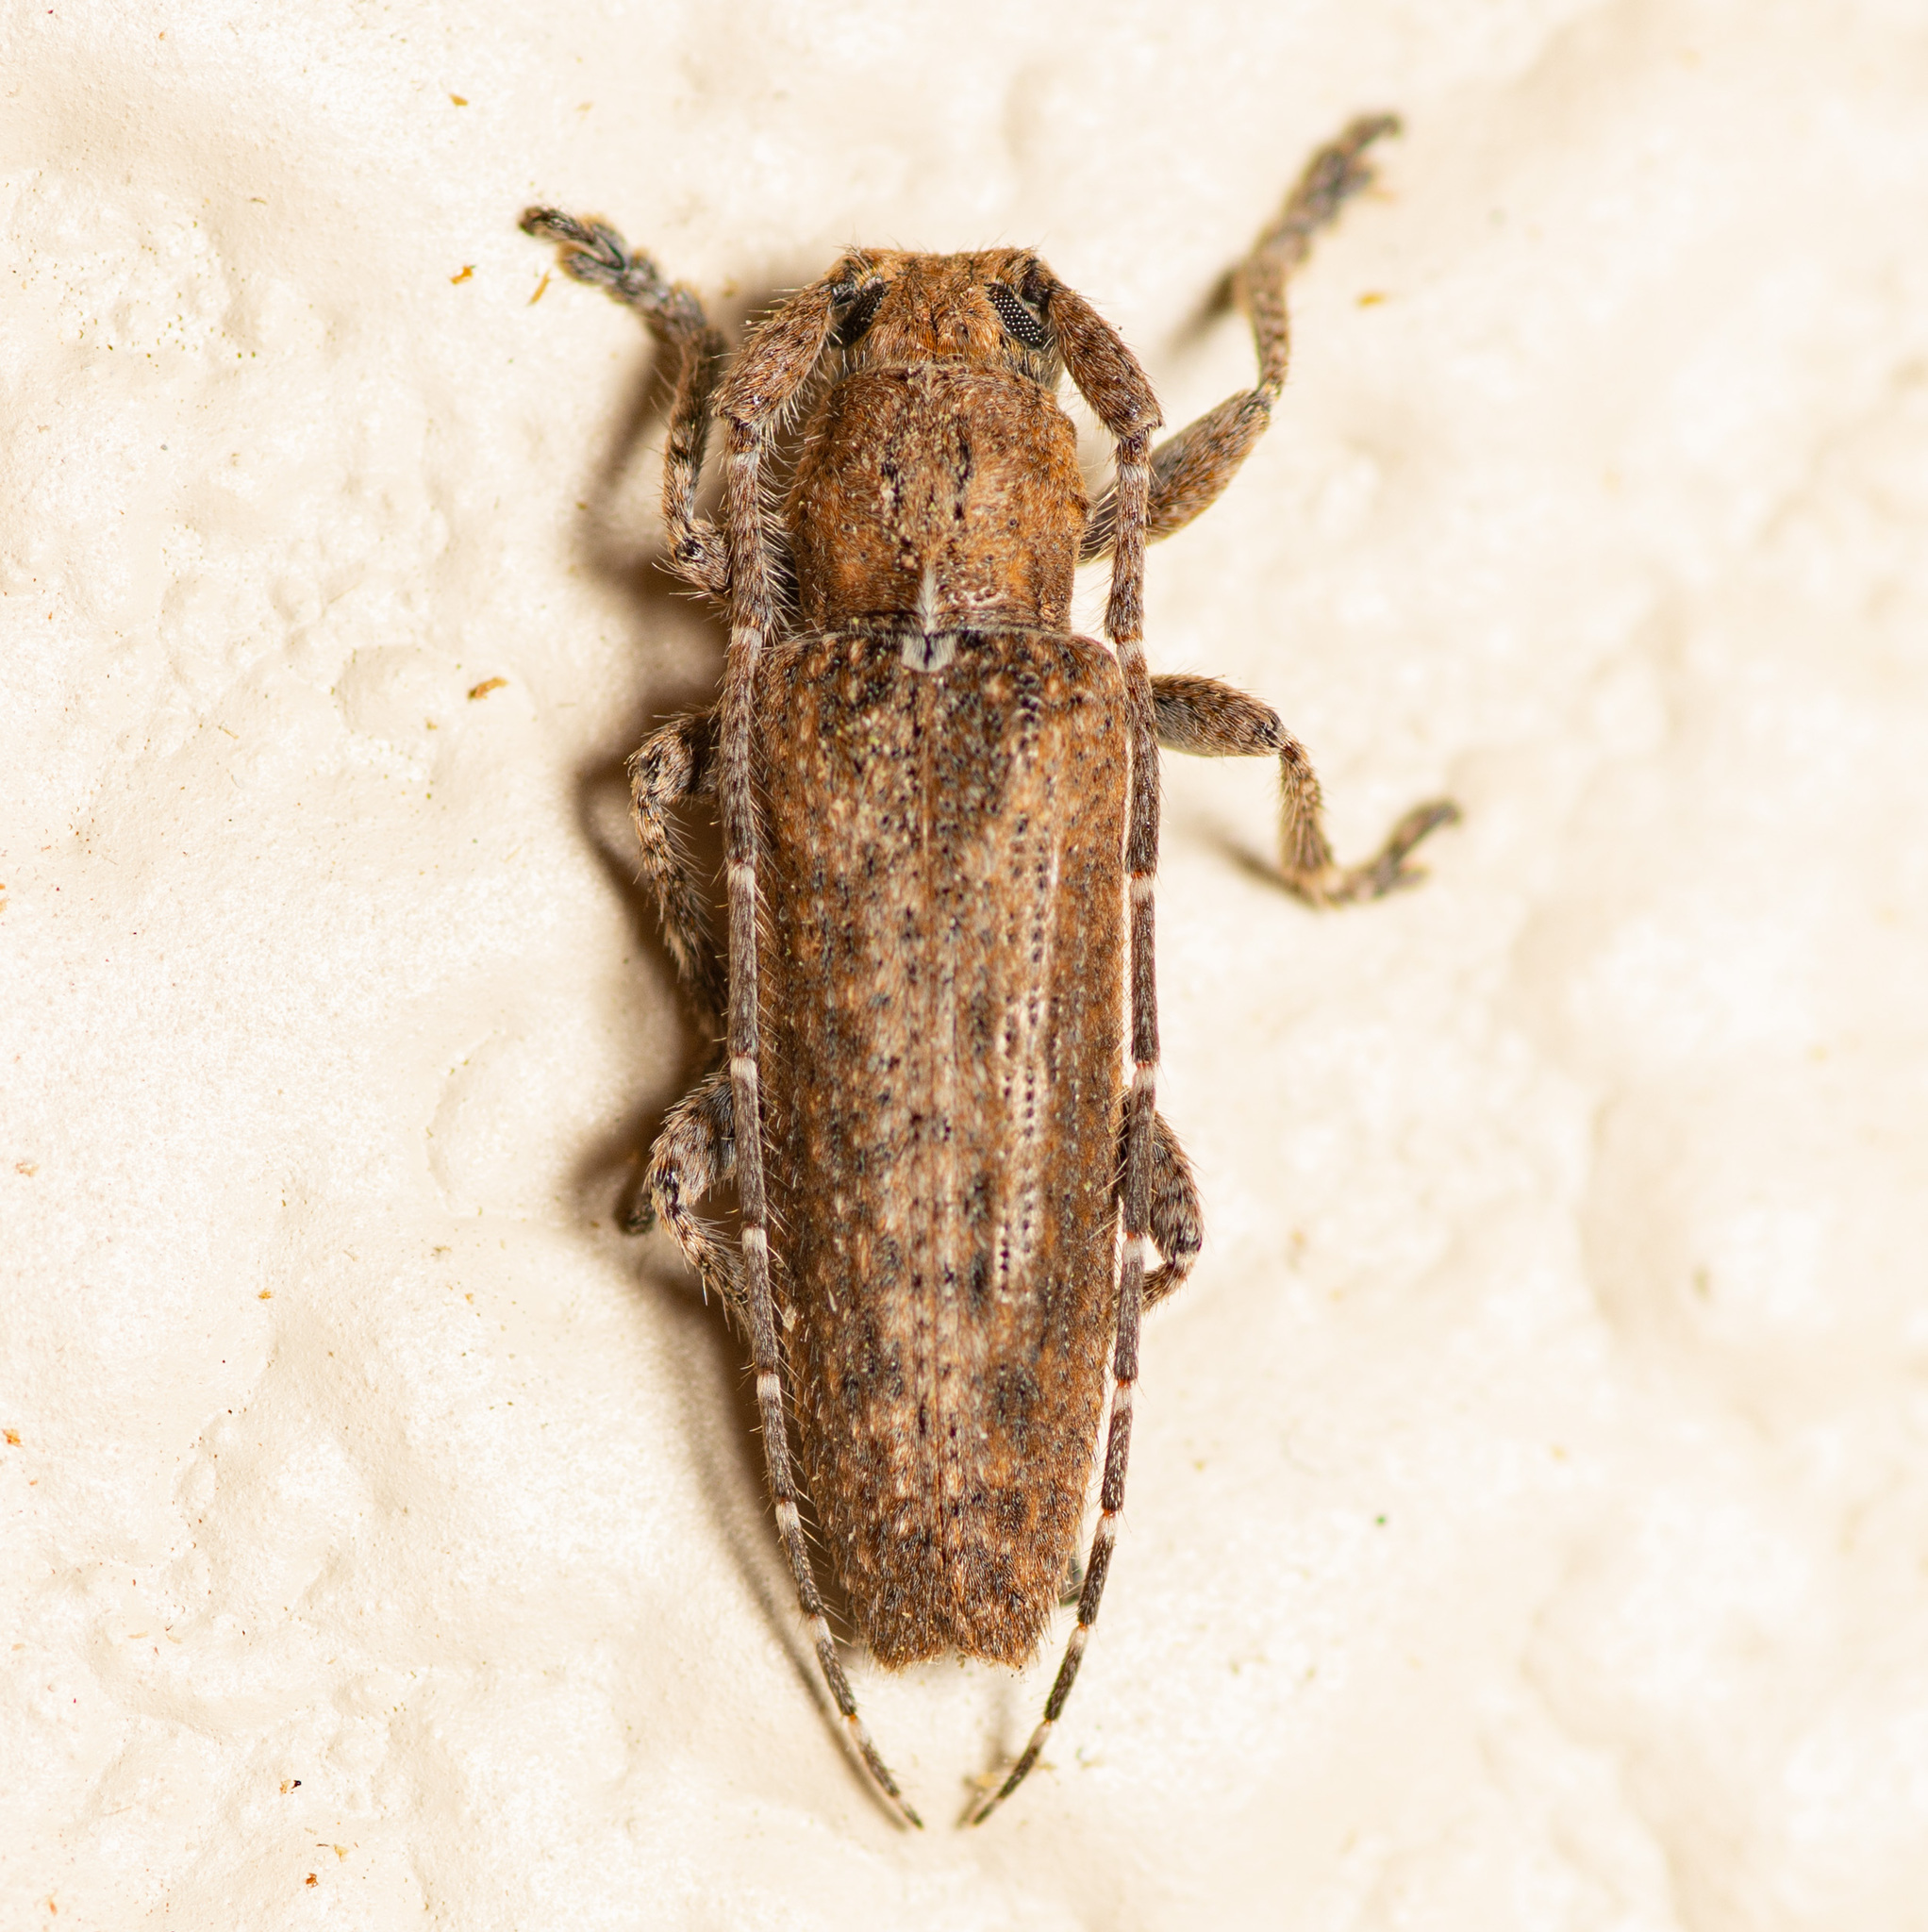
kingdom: Animalia
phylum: Arthropoda
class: Insecta
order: Coleoptera
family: Cerambycidae
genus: Ataxia
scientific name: Ataxia crypta
